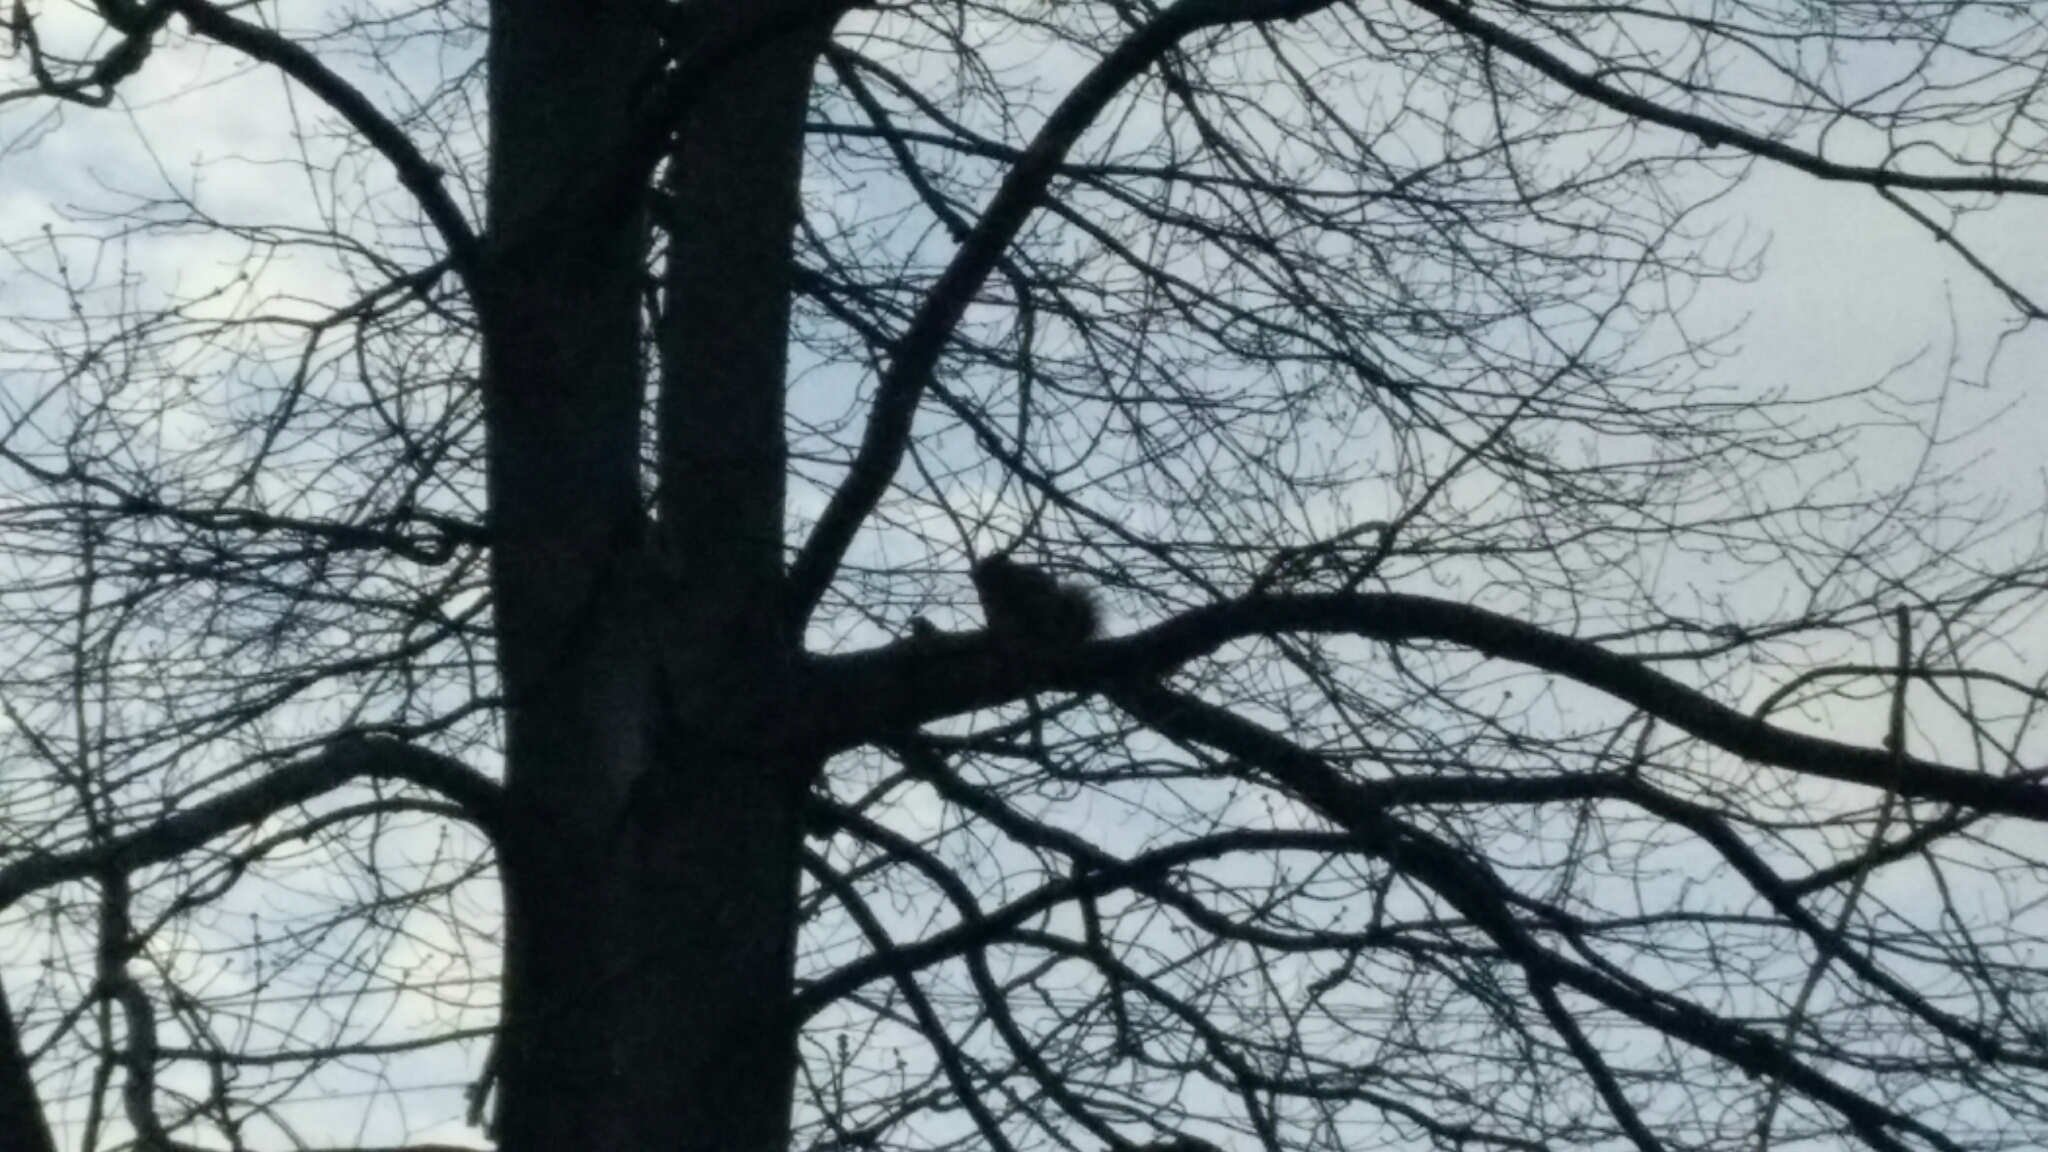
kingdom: Animalia
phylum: Chordata
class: Mammalia
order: Rodentia
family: Sciuridae
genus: Sciurus
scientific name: Sciurus carolinensis
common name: Eastern gray squirrel
